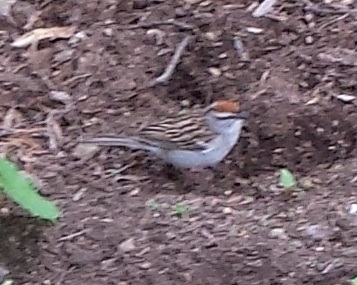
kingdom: Animalia
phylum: Chordata
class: Aves
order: Passeriformes
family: Passerellidae
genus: Spizella
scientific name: Spizella passerina
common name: Chipping sparrow
